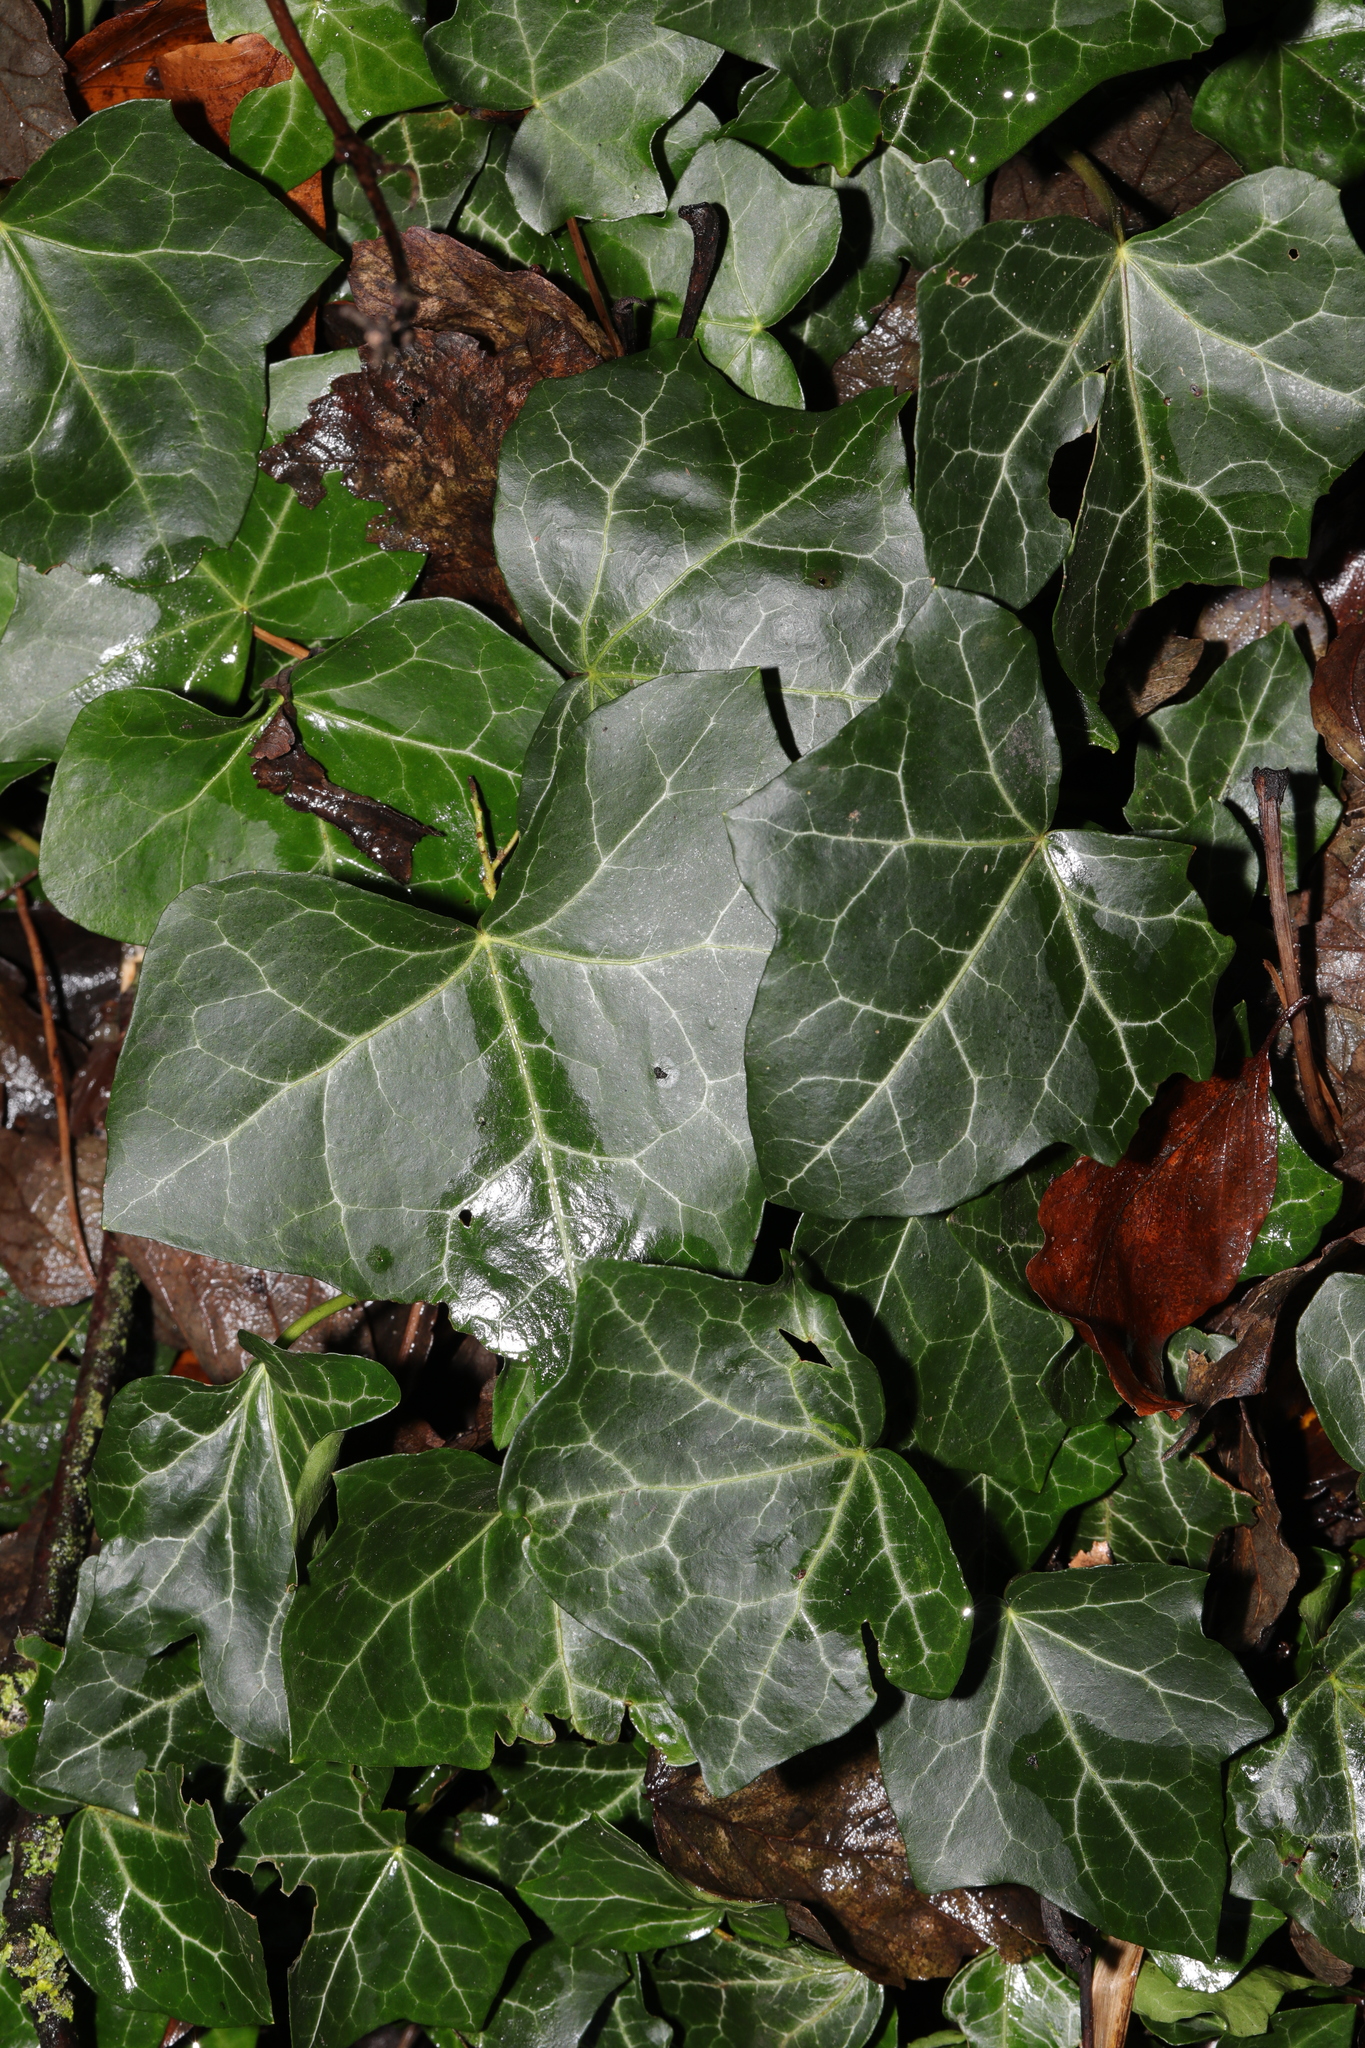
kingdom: Plantae
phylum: Tracheophyta
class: Magnoliopsida
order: Apiales
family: Araliaceae
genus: Hedera
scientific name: Hedera helix
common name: Ivy
